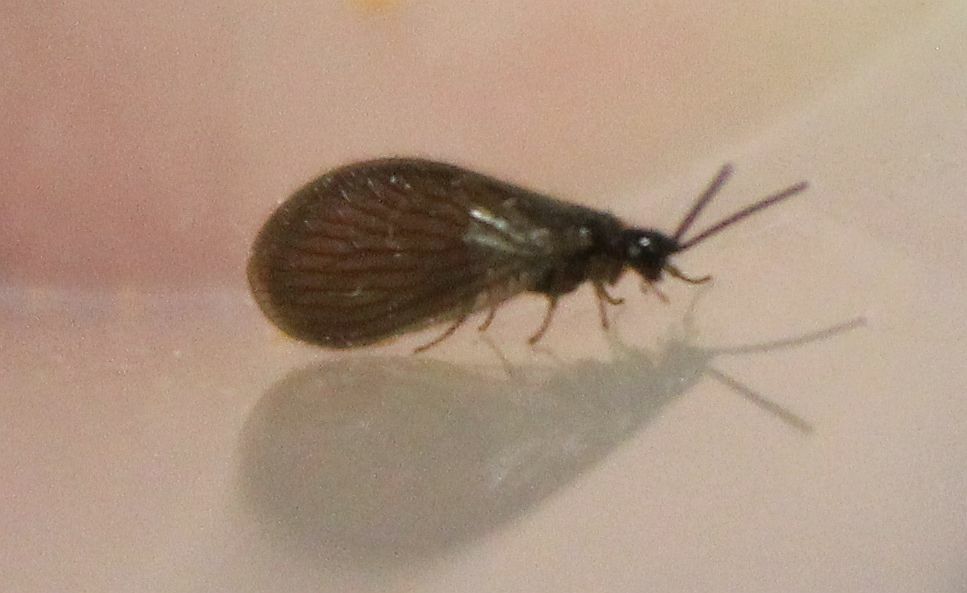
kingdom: Animalia
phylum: Arthropoda
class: Insecta
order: Neuroptera
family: Sisyridae
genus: Sisyra
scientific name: Sisyra nigra
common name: Black spongillafly
